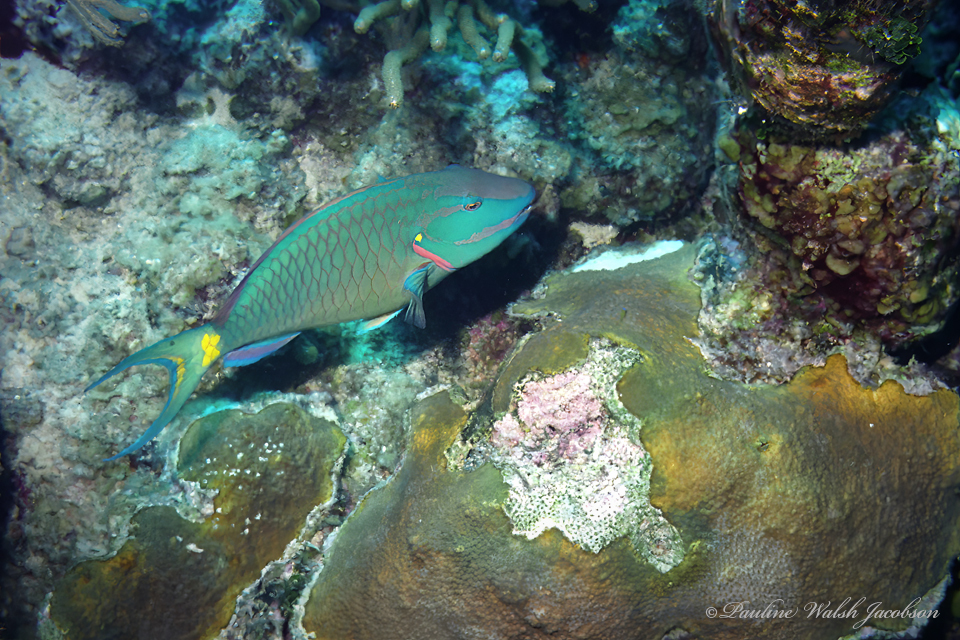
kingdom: Animalia
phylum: Chordata
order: Perciformes
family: Scaridae
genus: Sparisoma
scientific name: Sparisoma viride
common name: Stoplight parrotfish
